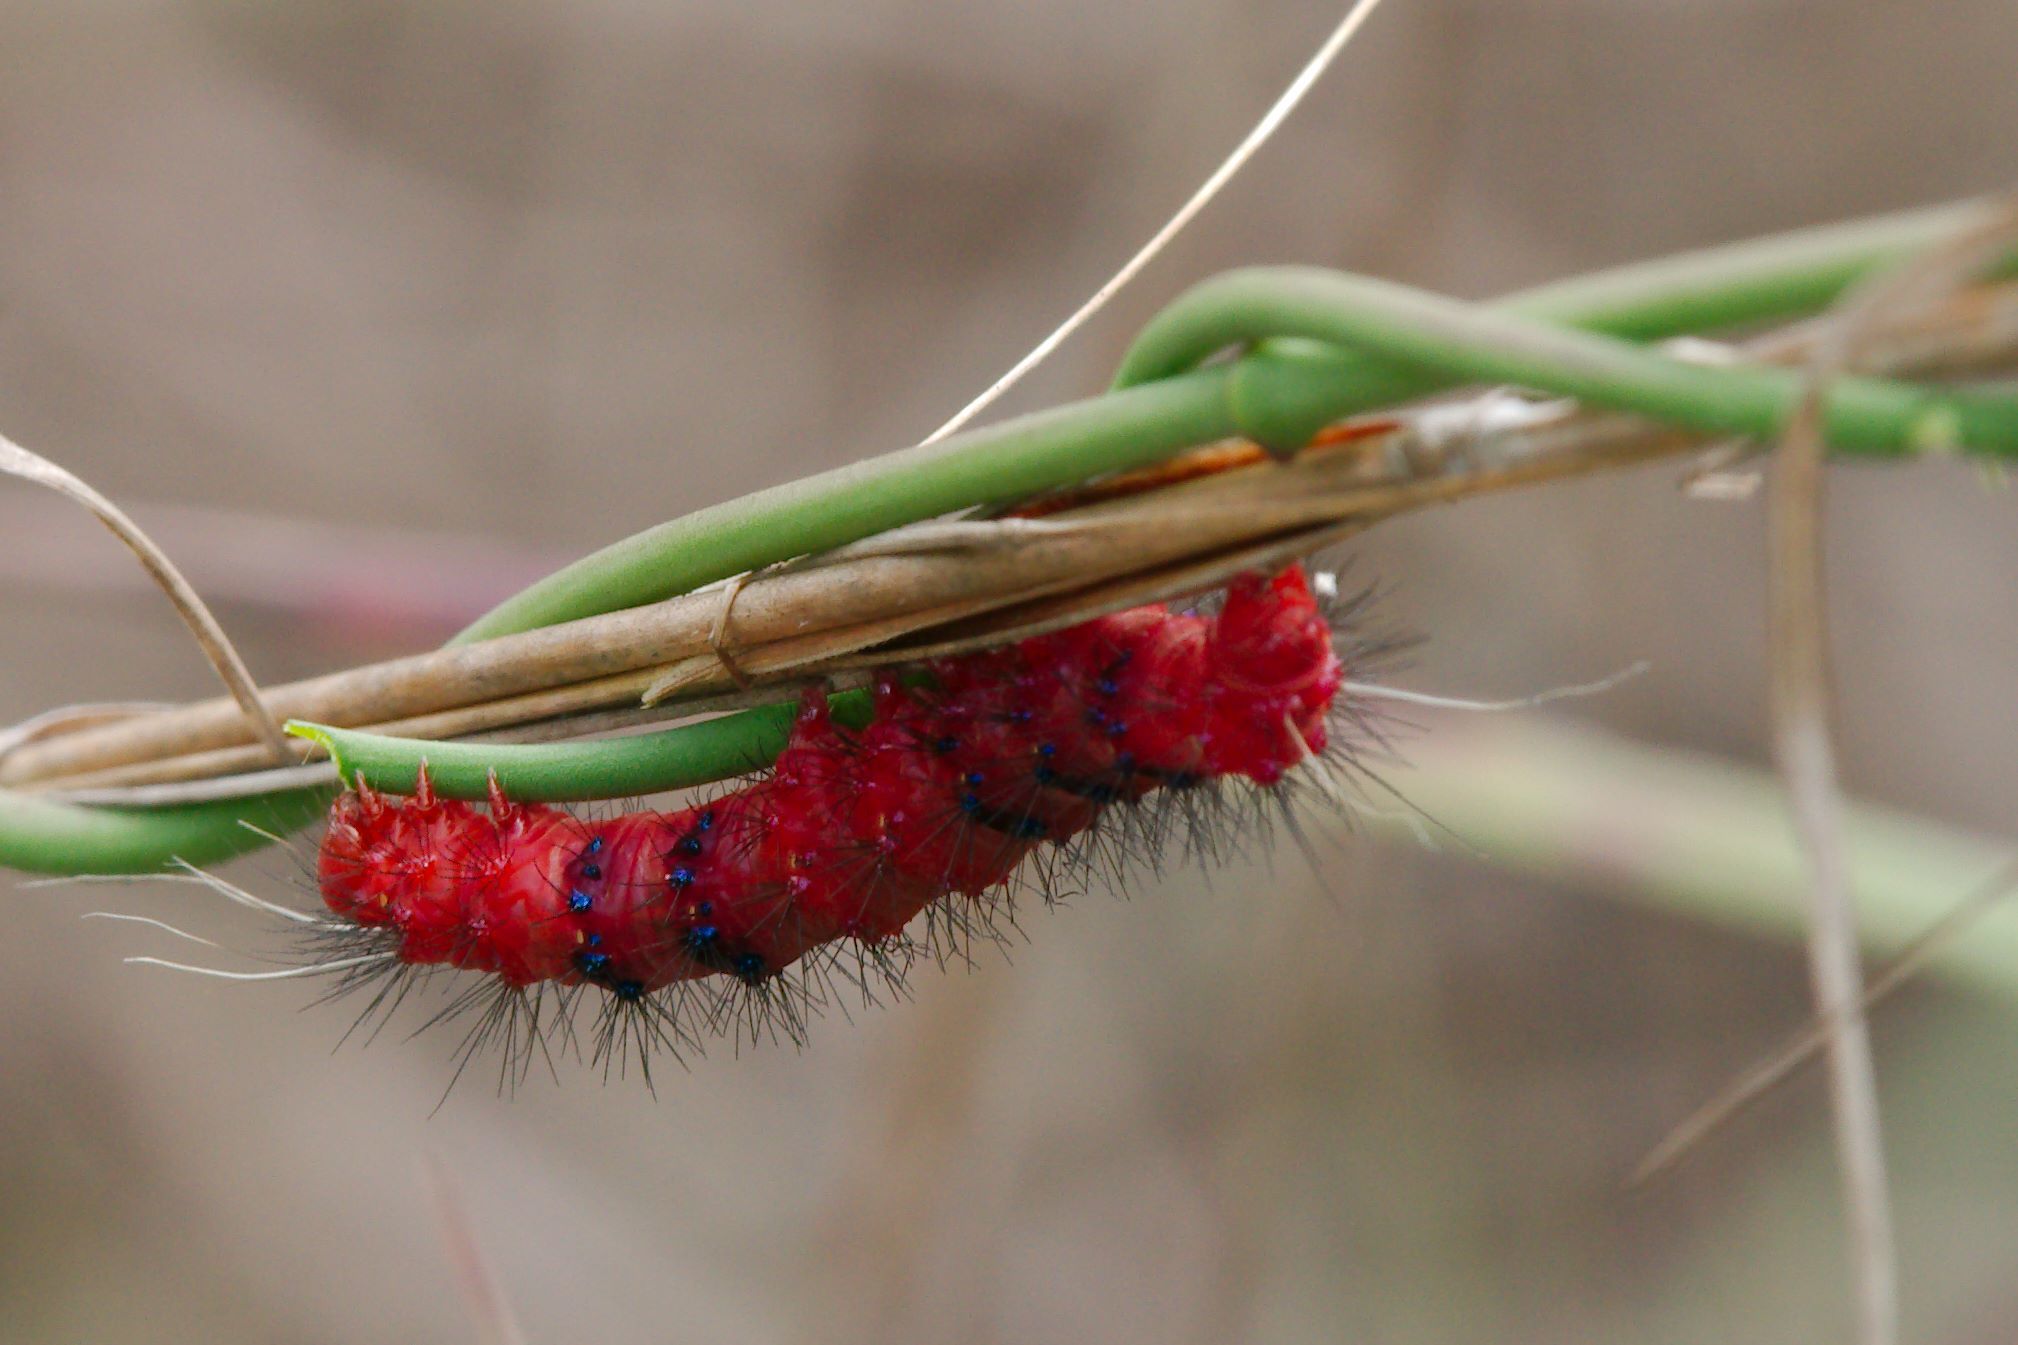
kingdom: Animalia
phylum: Arthropoda
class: Insecta
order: Lepidoptera
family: Erebidae
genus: Composia
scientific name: Composia fidelissima
